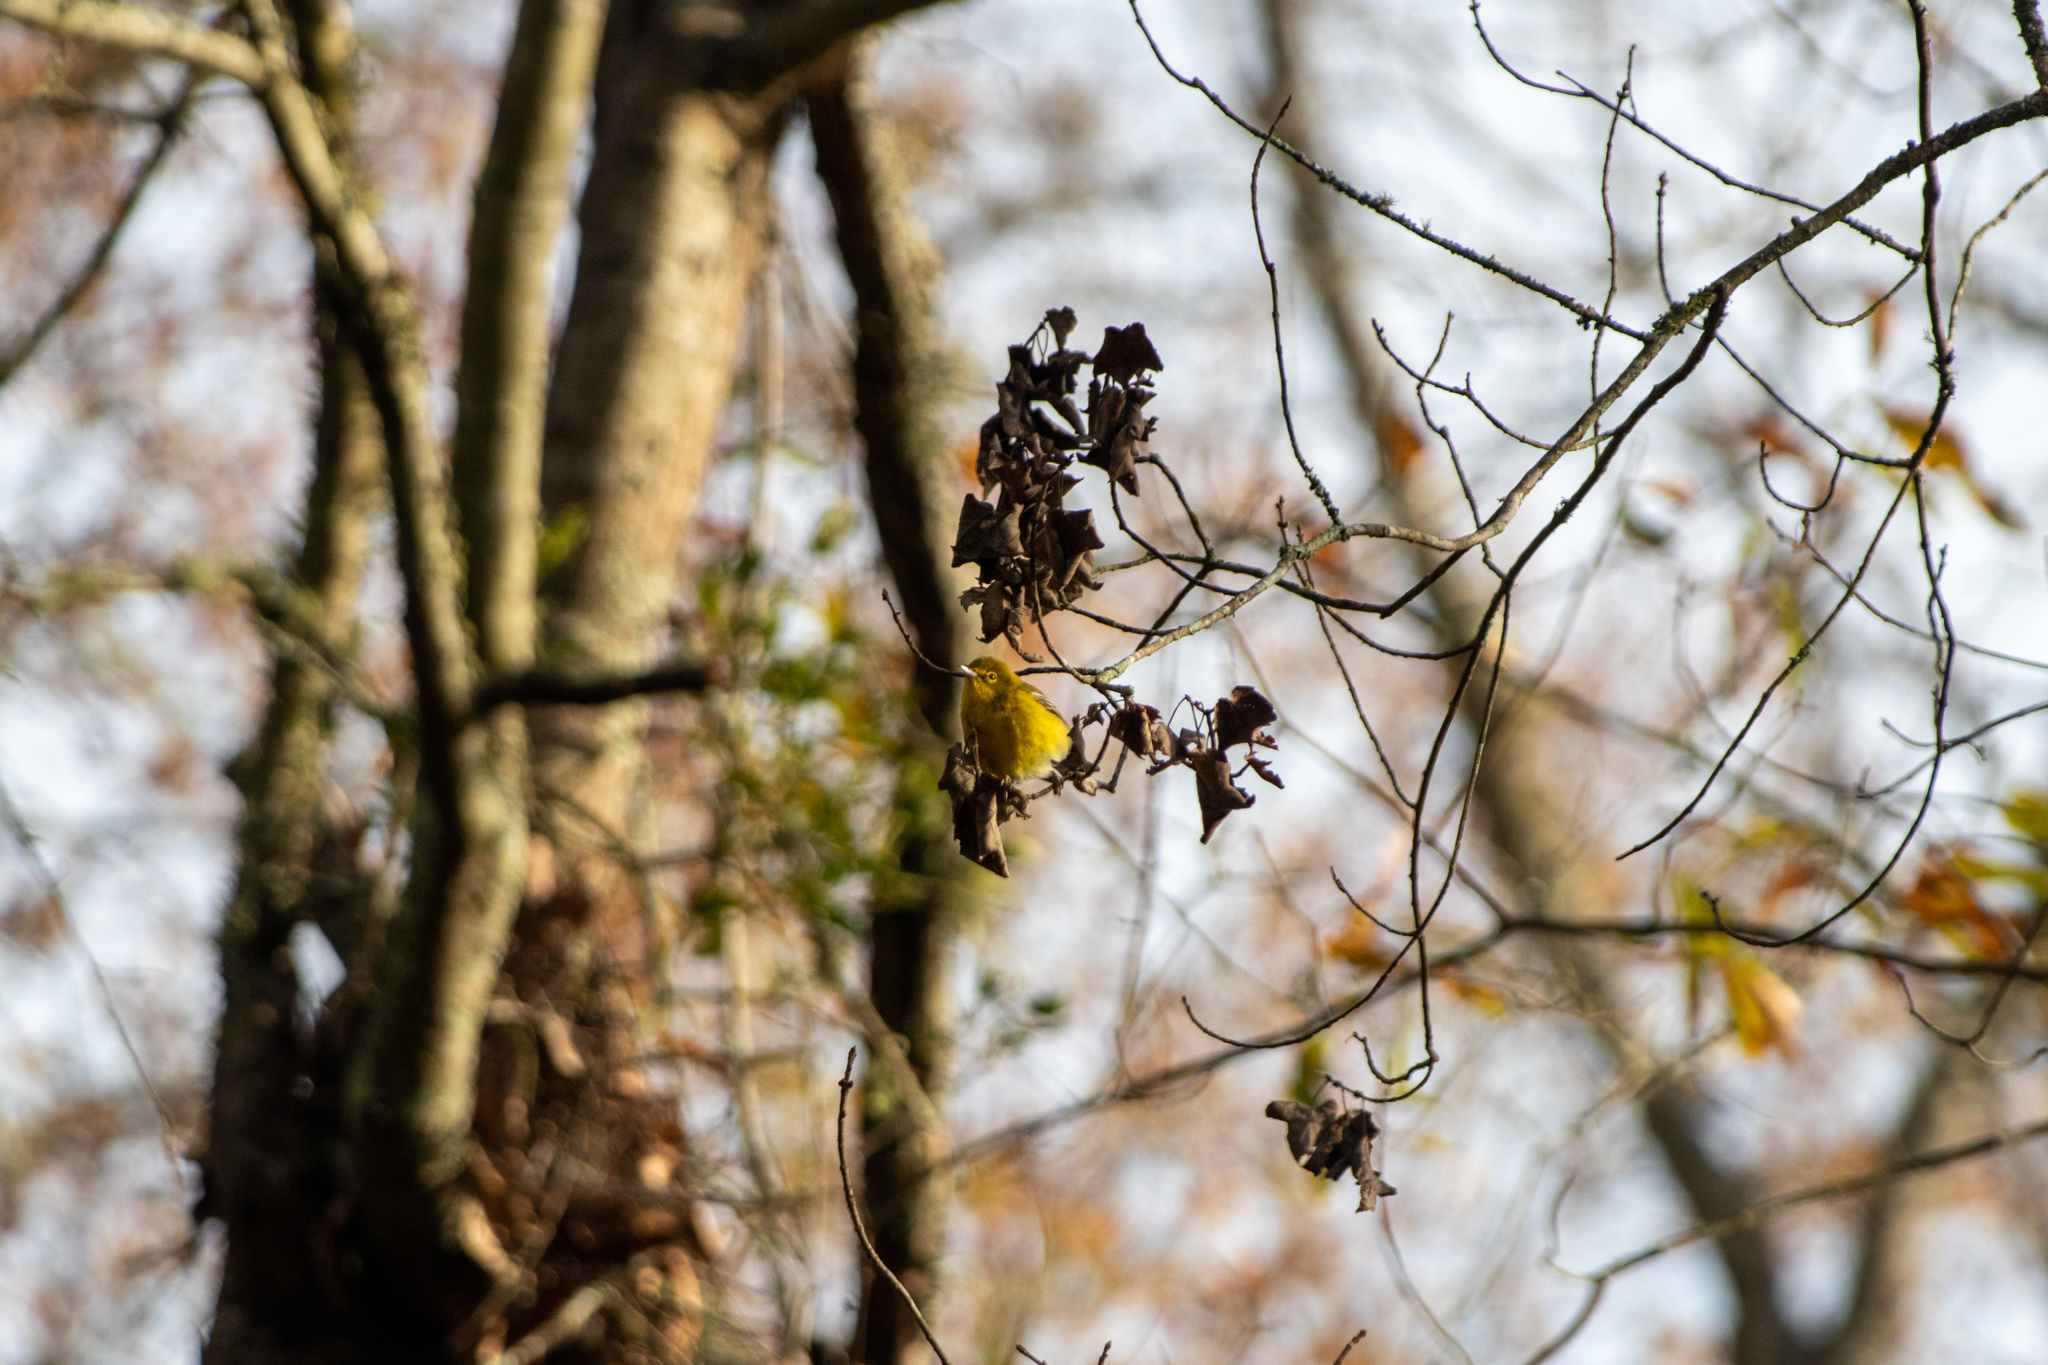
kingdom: Animalia
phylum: Chordata
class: Aves
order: Passeriformes
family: Parulidae
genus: Setophaga
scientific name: Setophaga pinus
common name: Pine warbler
